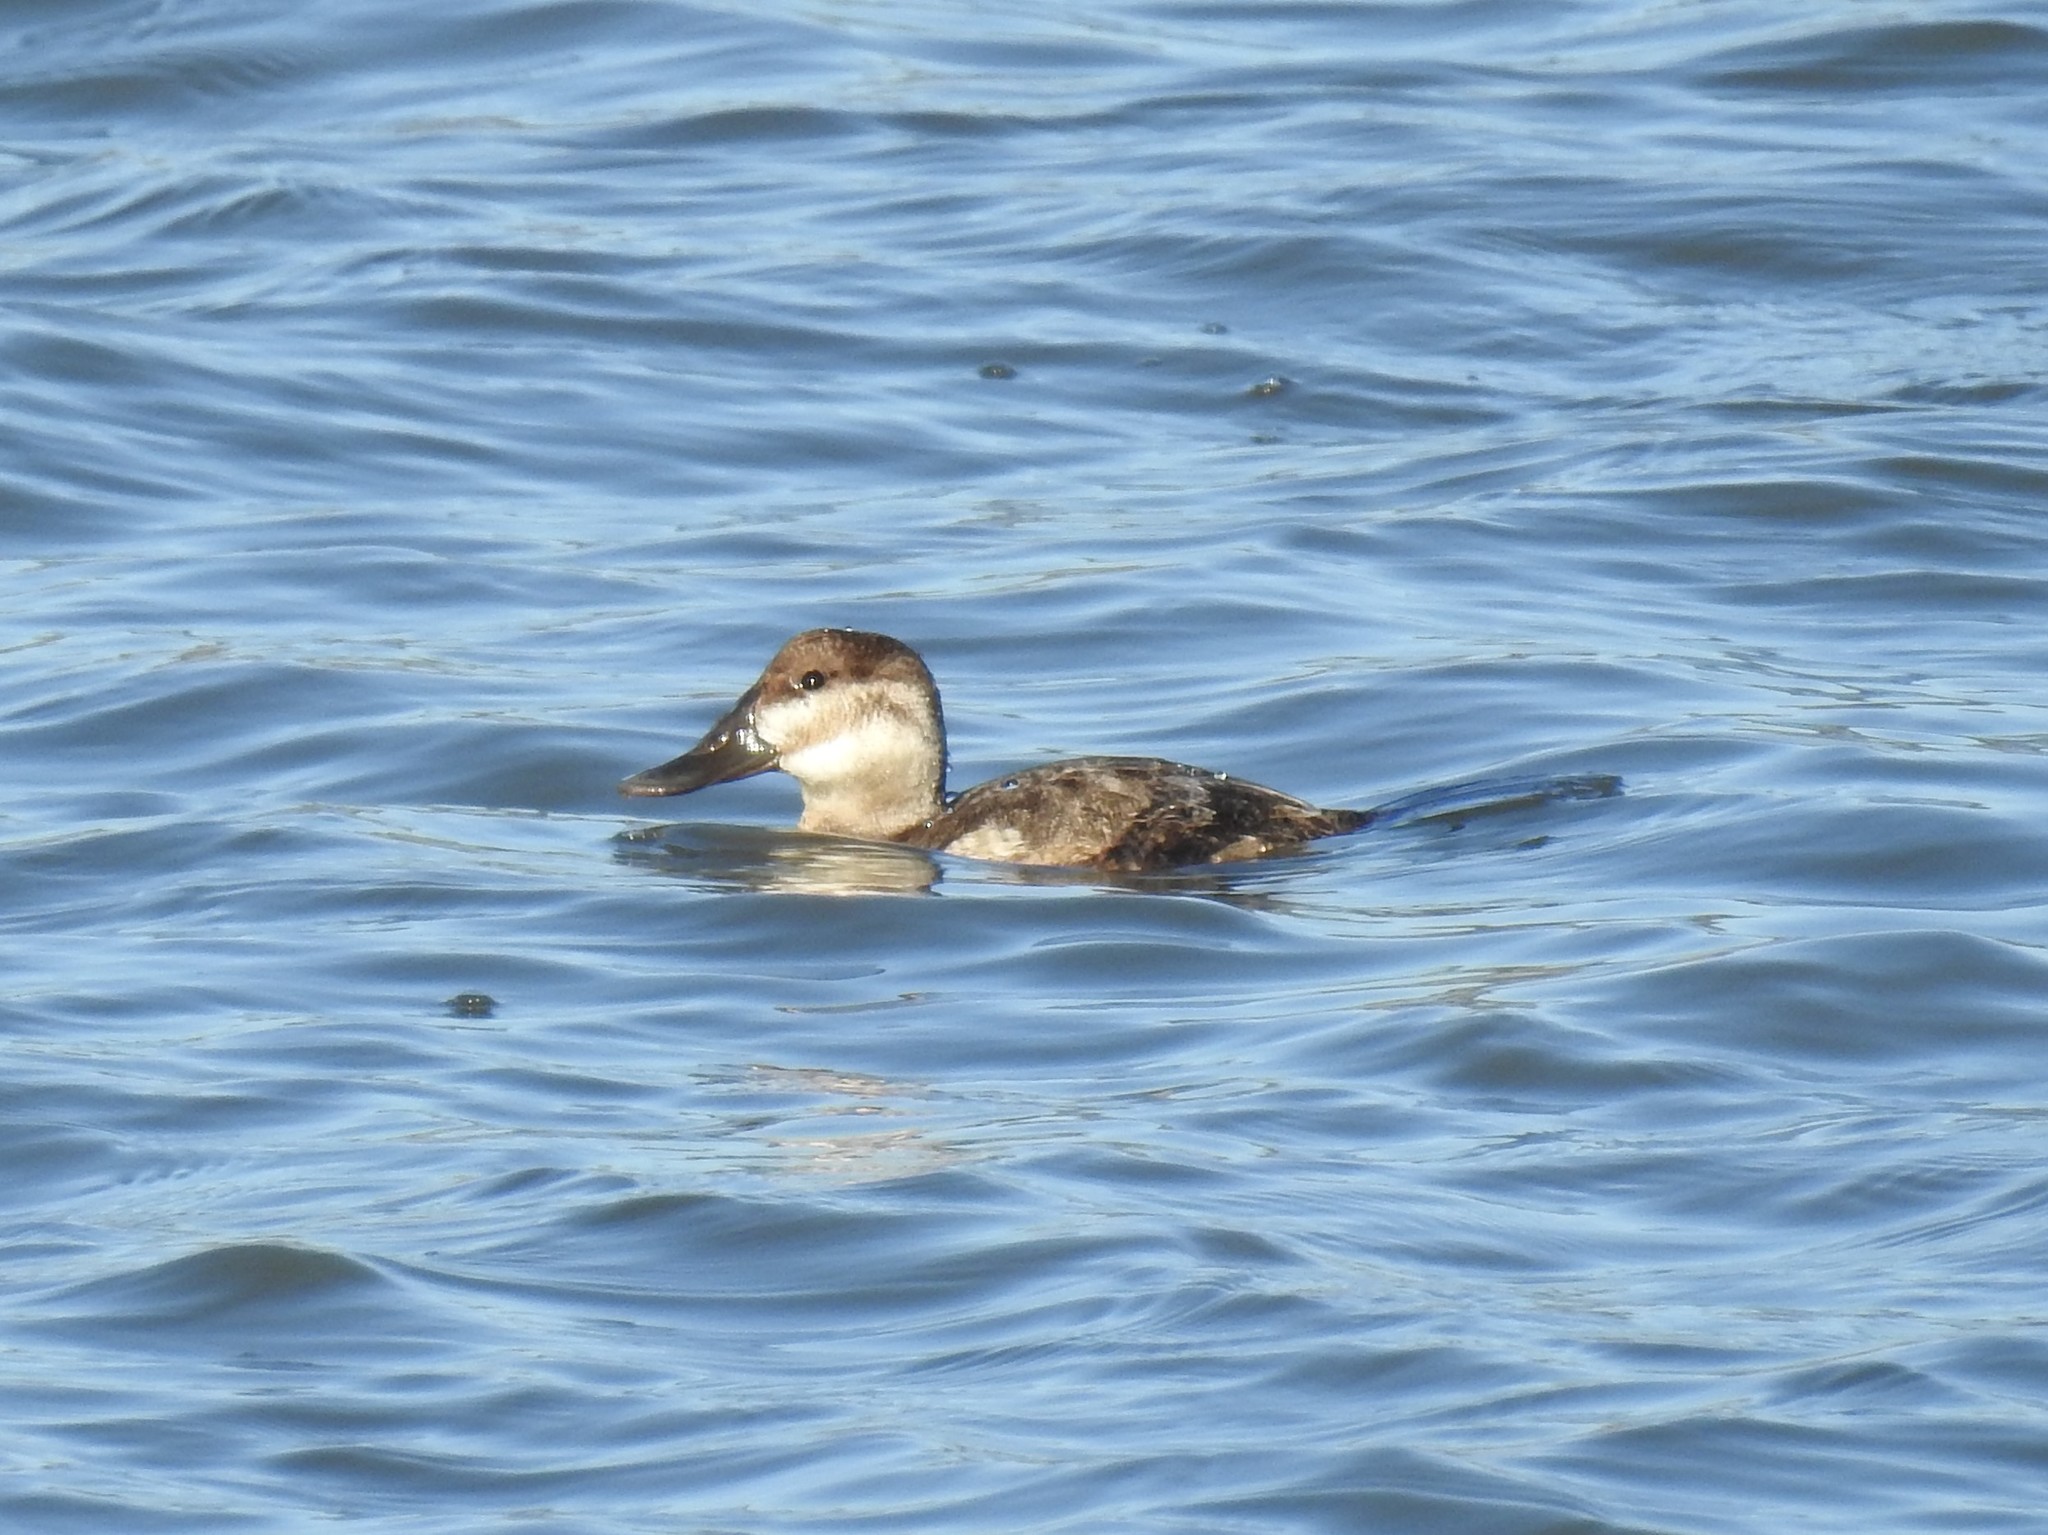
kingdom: Animalia
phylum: Chordata
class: Aves
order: Anseriformes
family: Anatidae
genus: Oxyura
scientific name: Oxyura jamaicensis
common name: Ruddy duck
